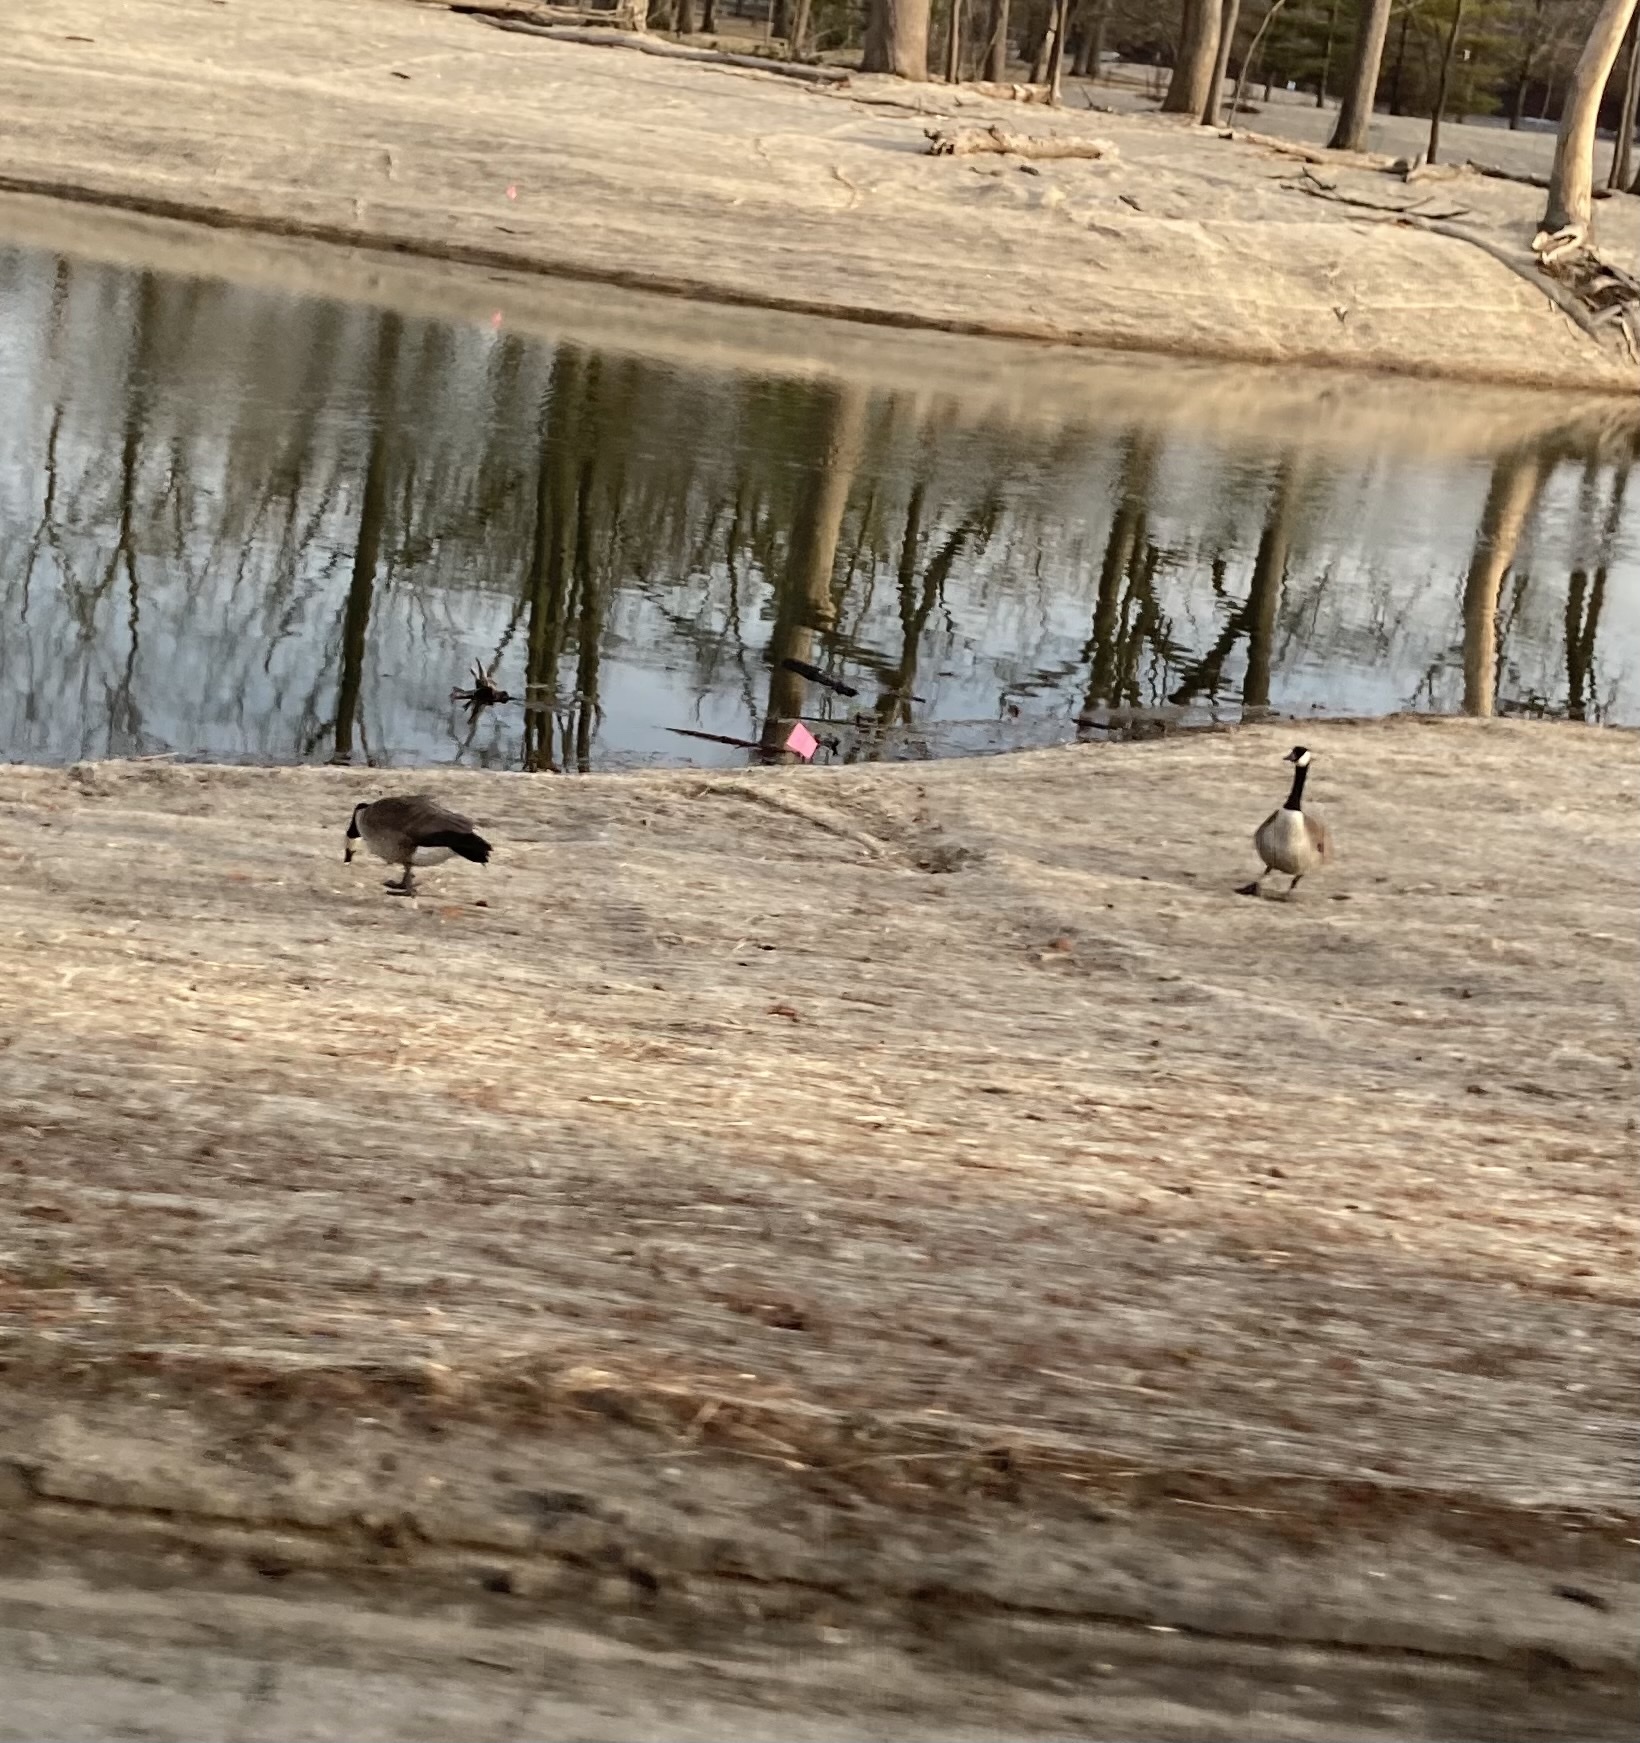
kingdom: Animalia
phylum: Chordata
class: Aves
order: Anseriformes
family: Anatidae
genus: Branta
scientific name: Branta canadensis
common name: Canada goose
